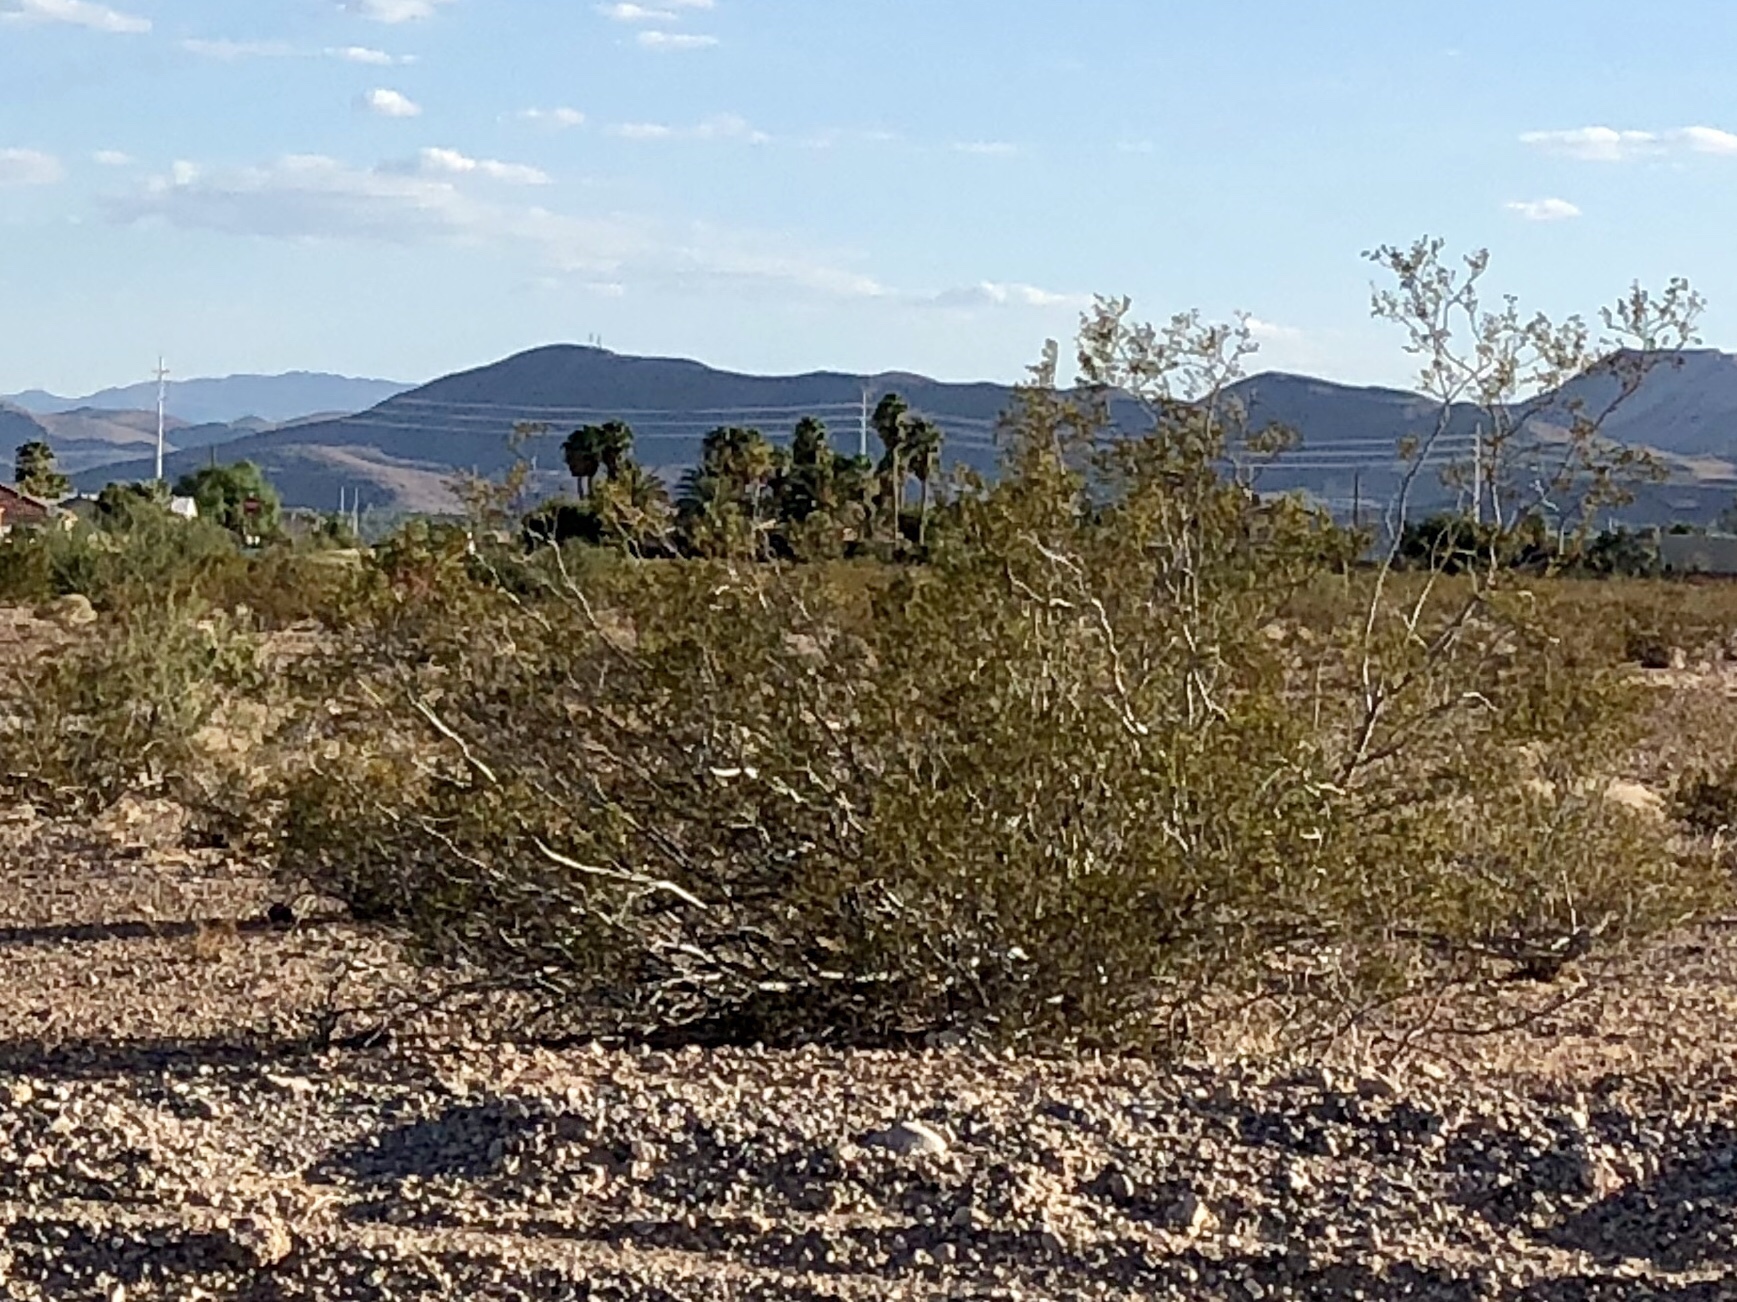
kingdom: Plantae
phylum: Tracheophyta
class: Magnoliopsida
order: Zygophyllales
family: Zygophyllaceae
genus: Larrea
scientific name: Larrea tridentata
